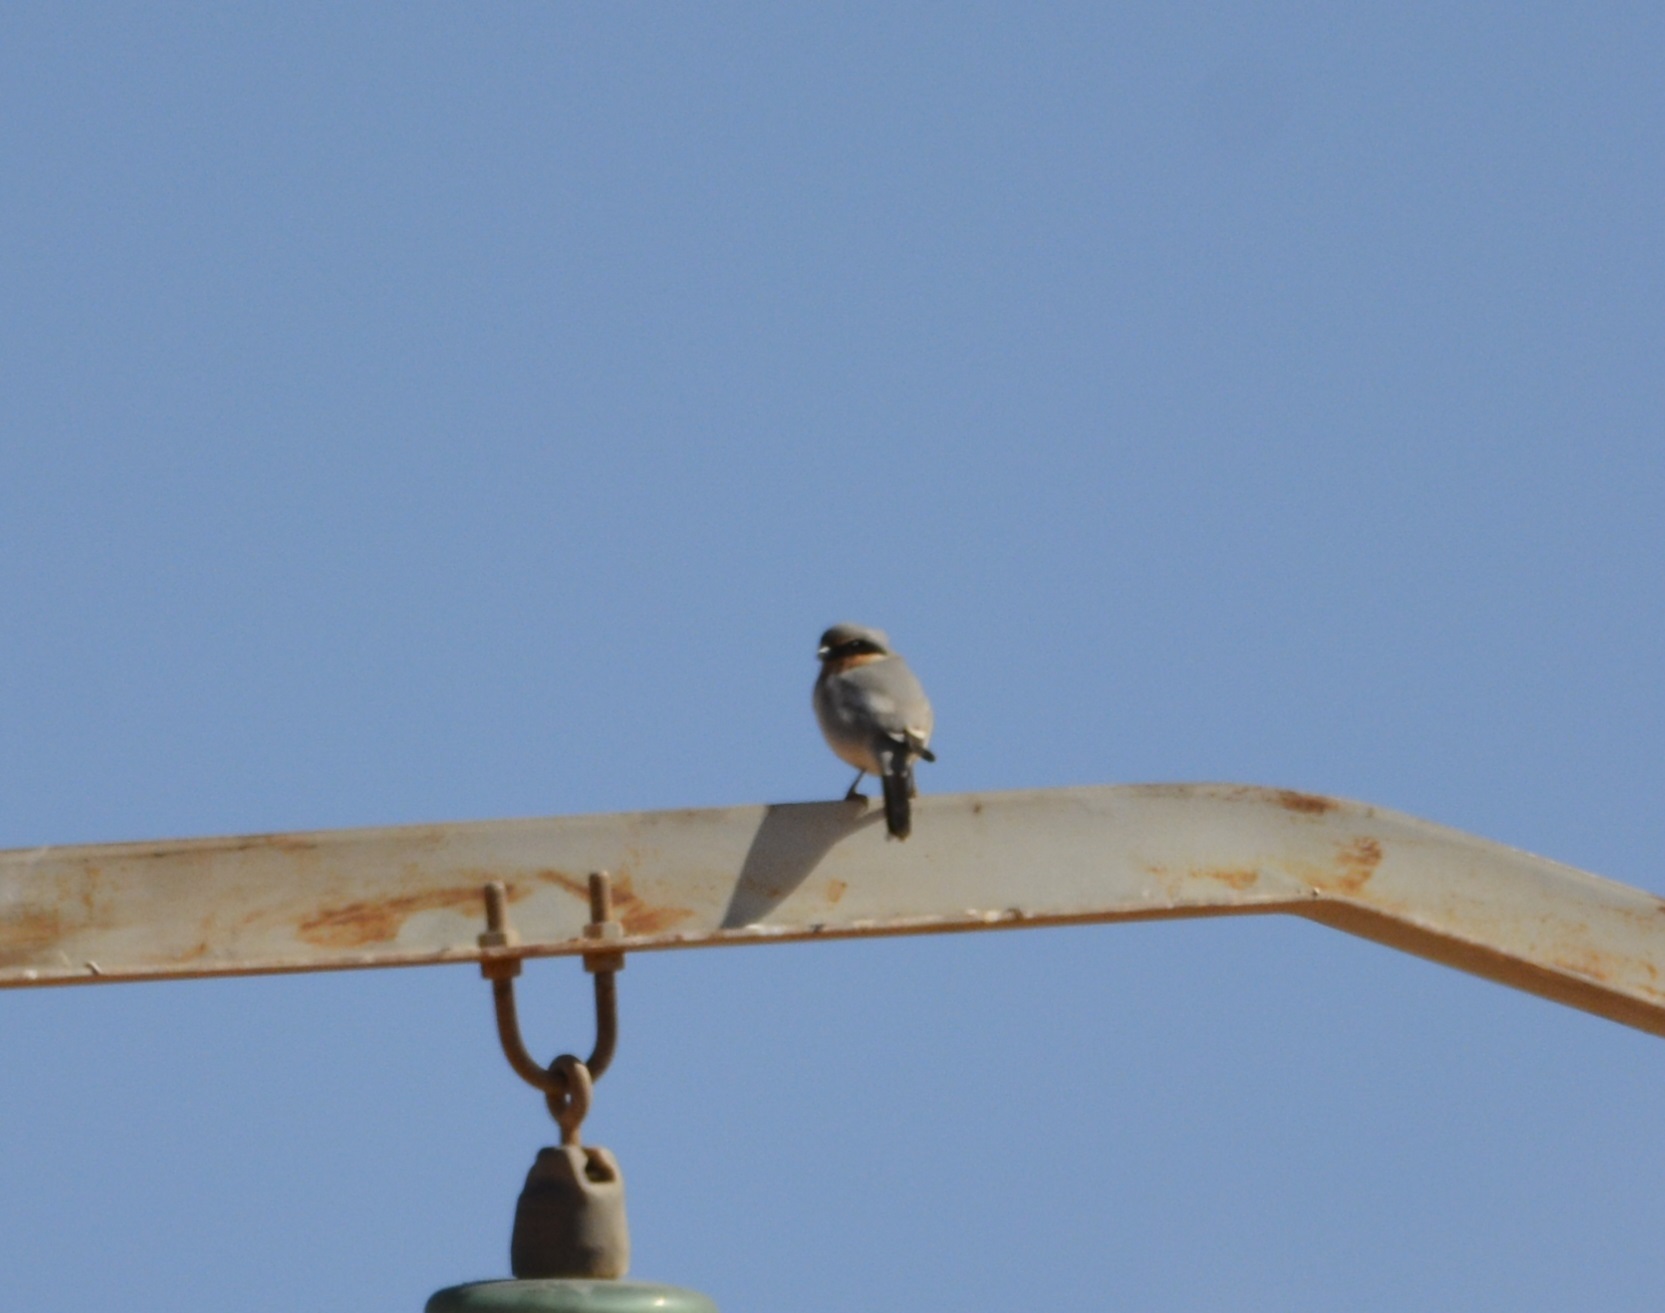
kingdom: Animalia
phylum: Chordata
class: Aves
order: Passeriformes
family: Laniidae
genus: Lanius
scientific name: Lanius excubitor
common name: Great grey shrike
